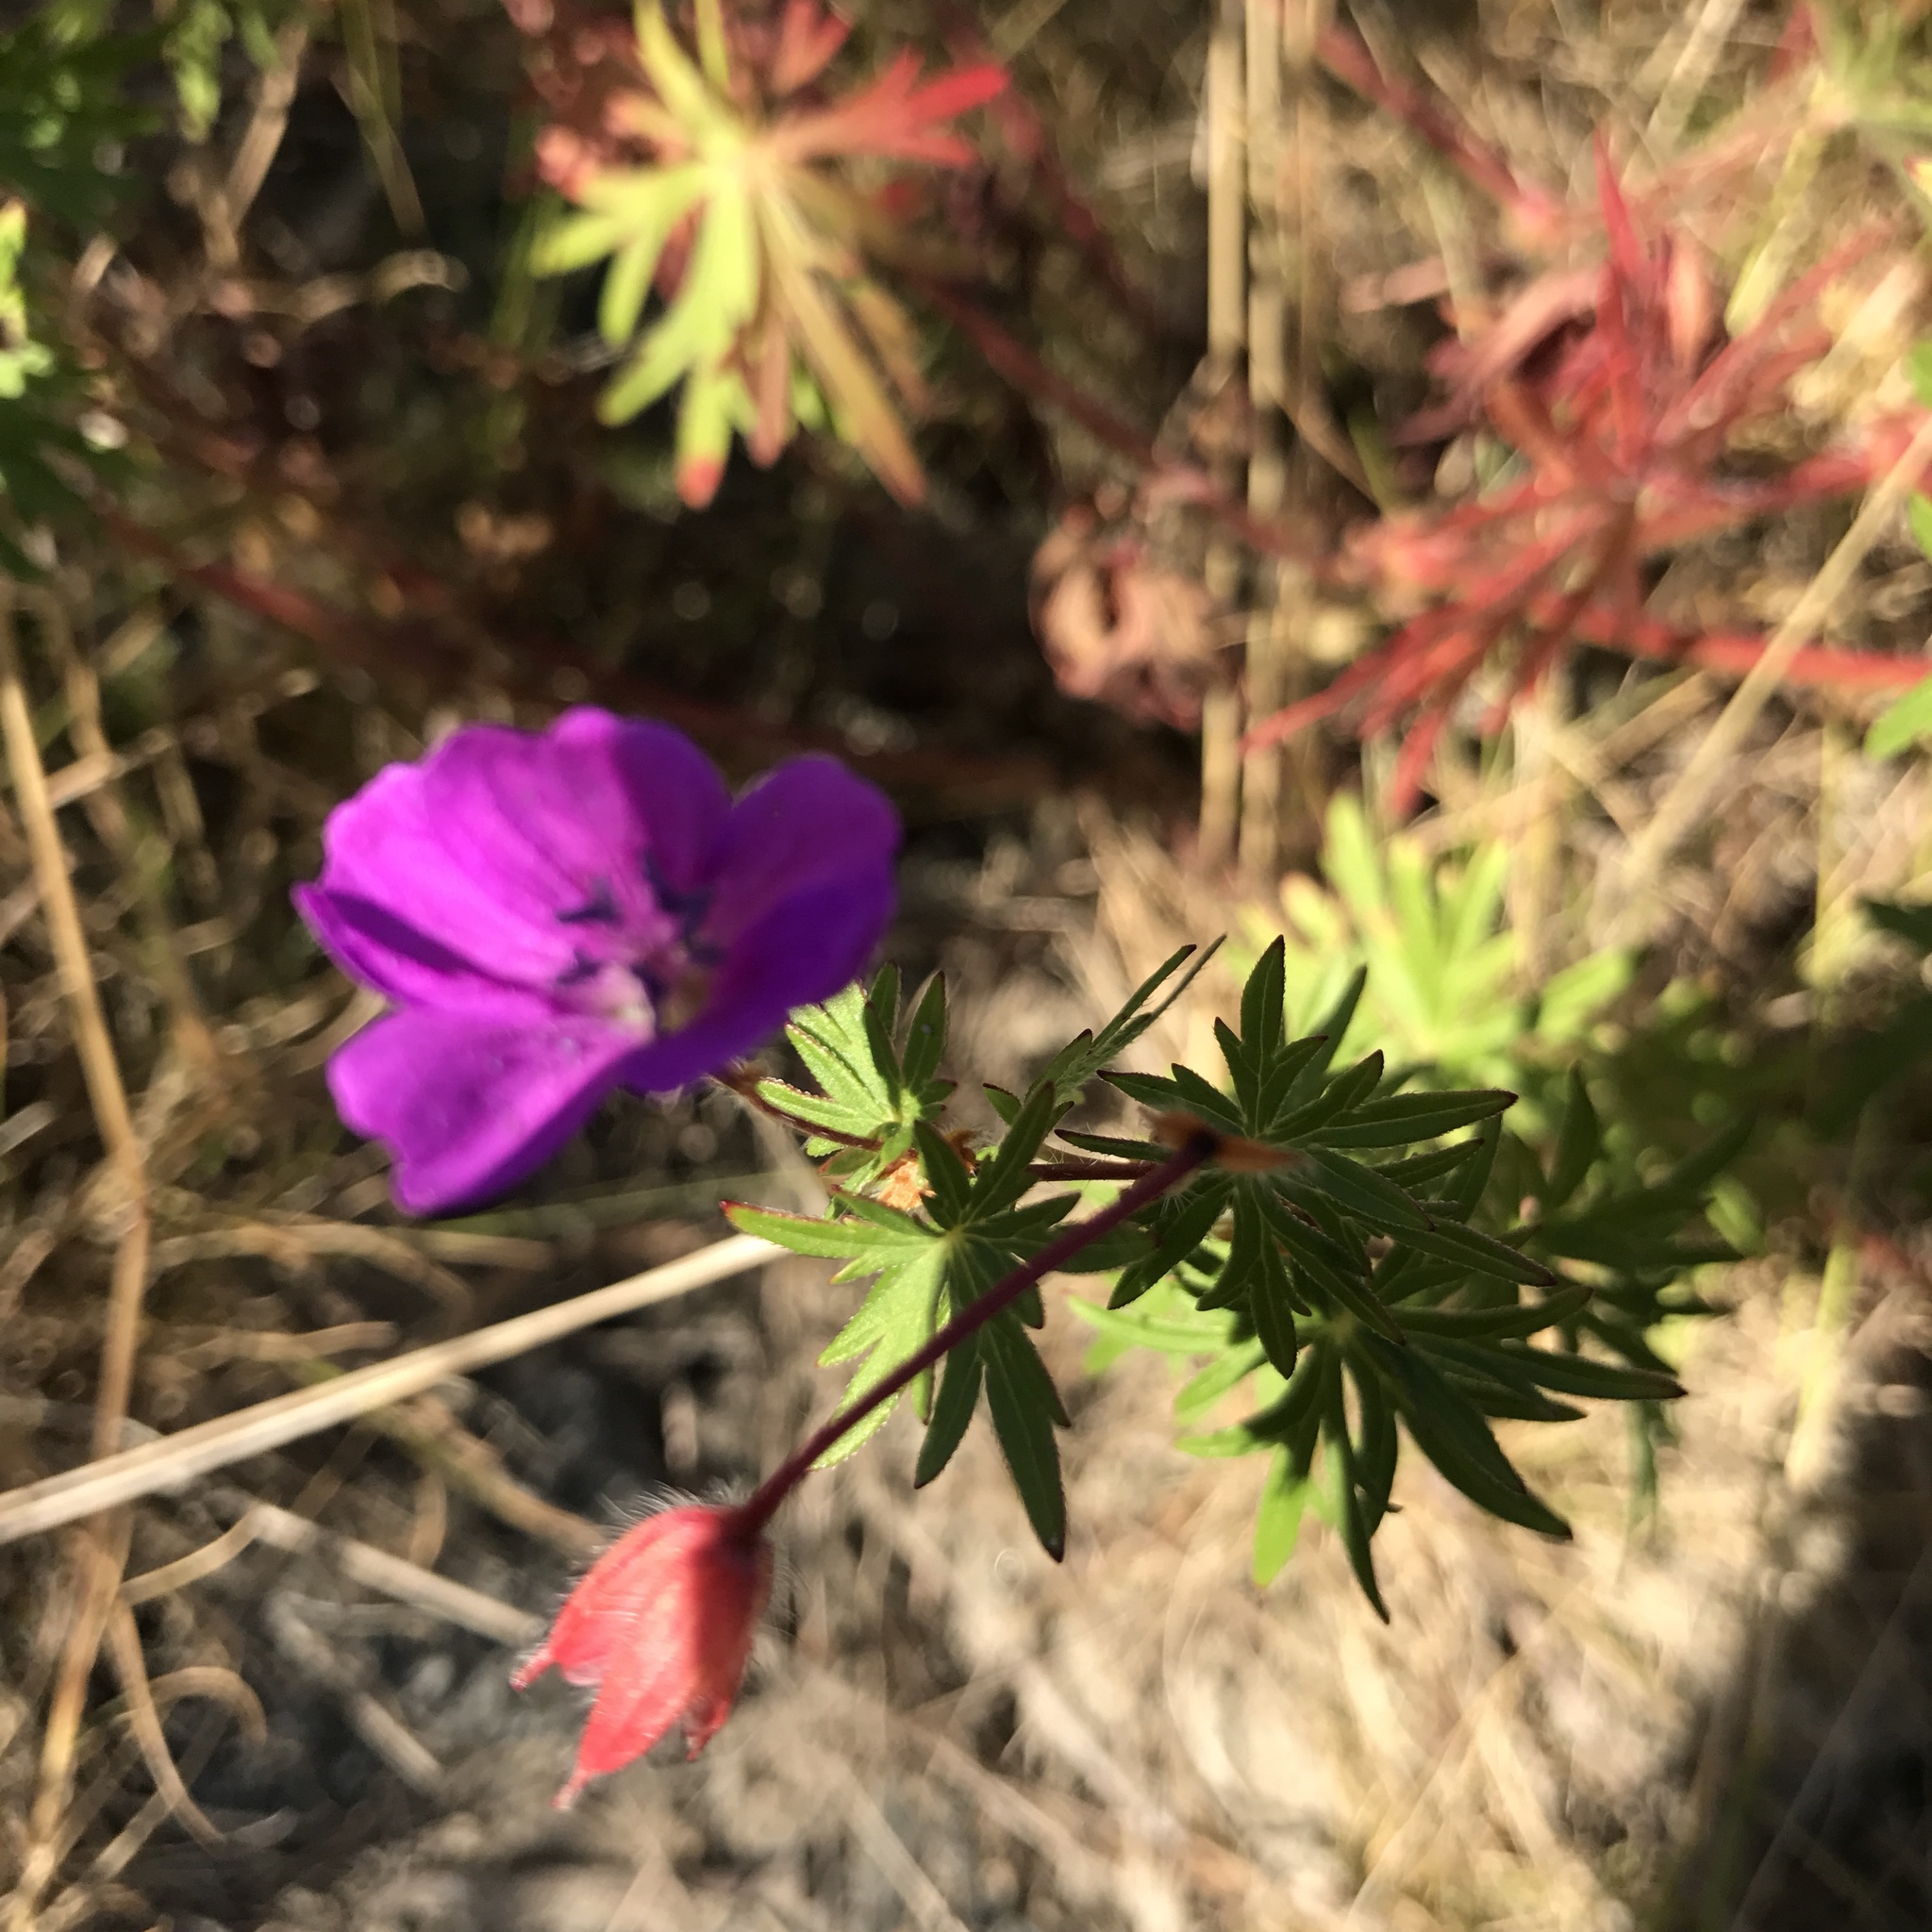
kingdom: Plantae
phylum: Tracheophyta
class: Magnoliopsida
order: Geraniales
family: Geraniaceae
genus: Geranium
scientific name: Geranium sanguineum
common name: Bloody crane's-bill
